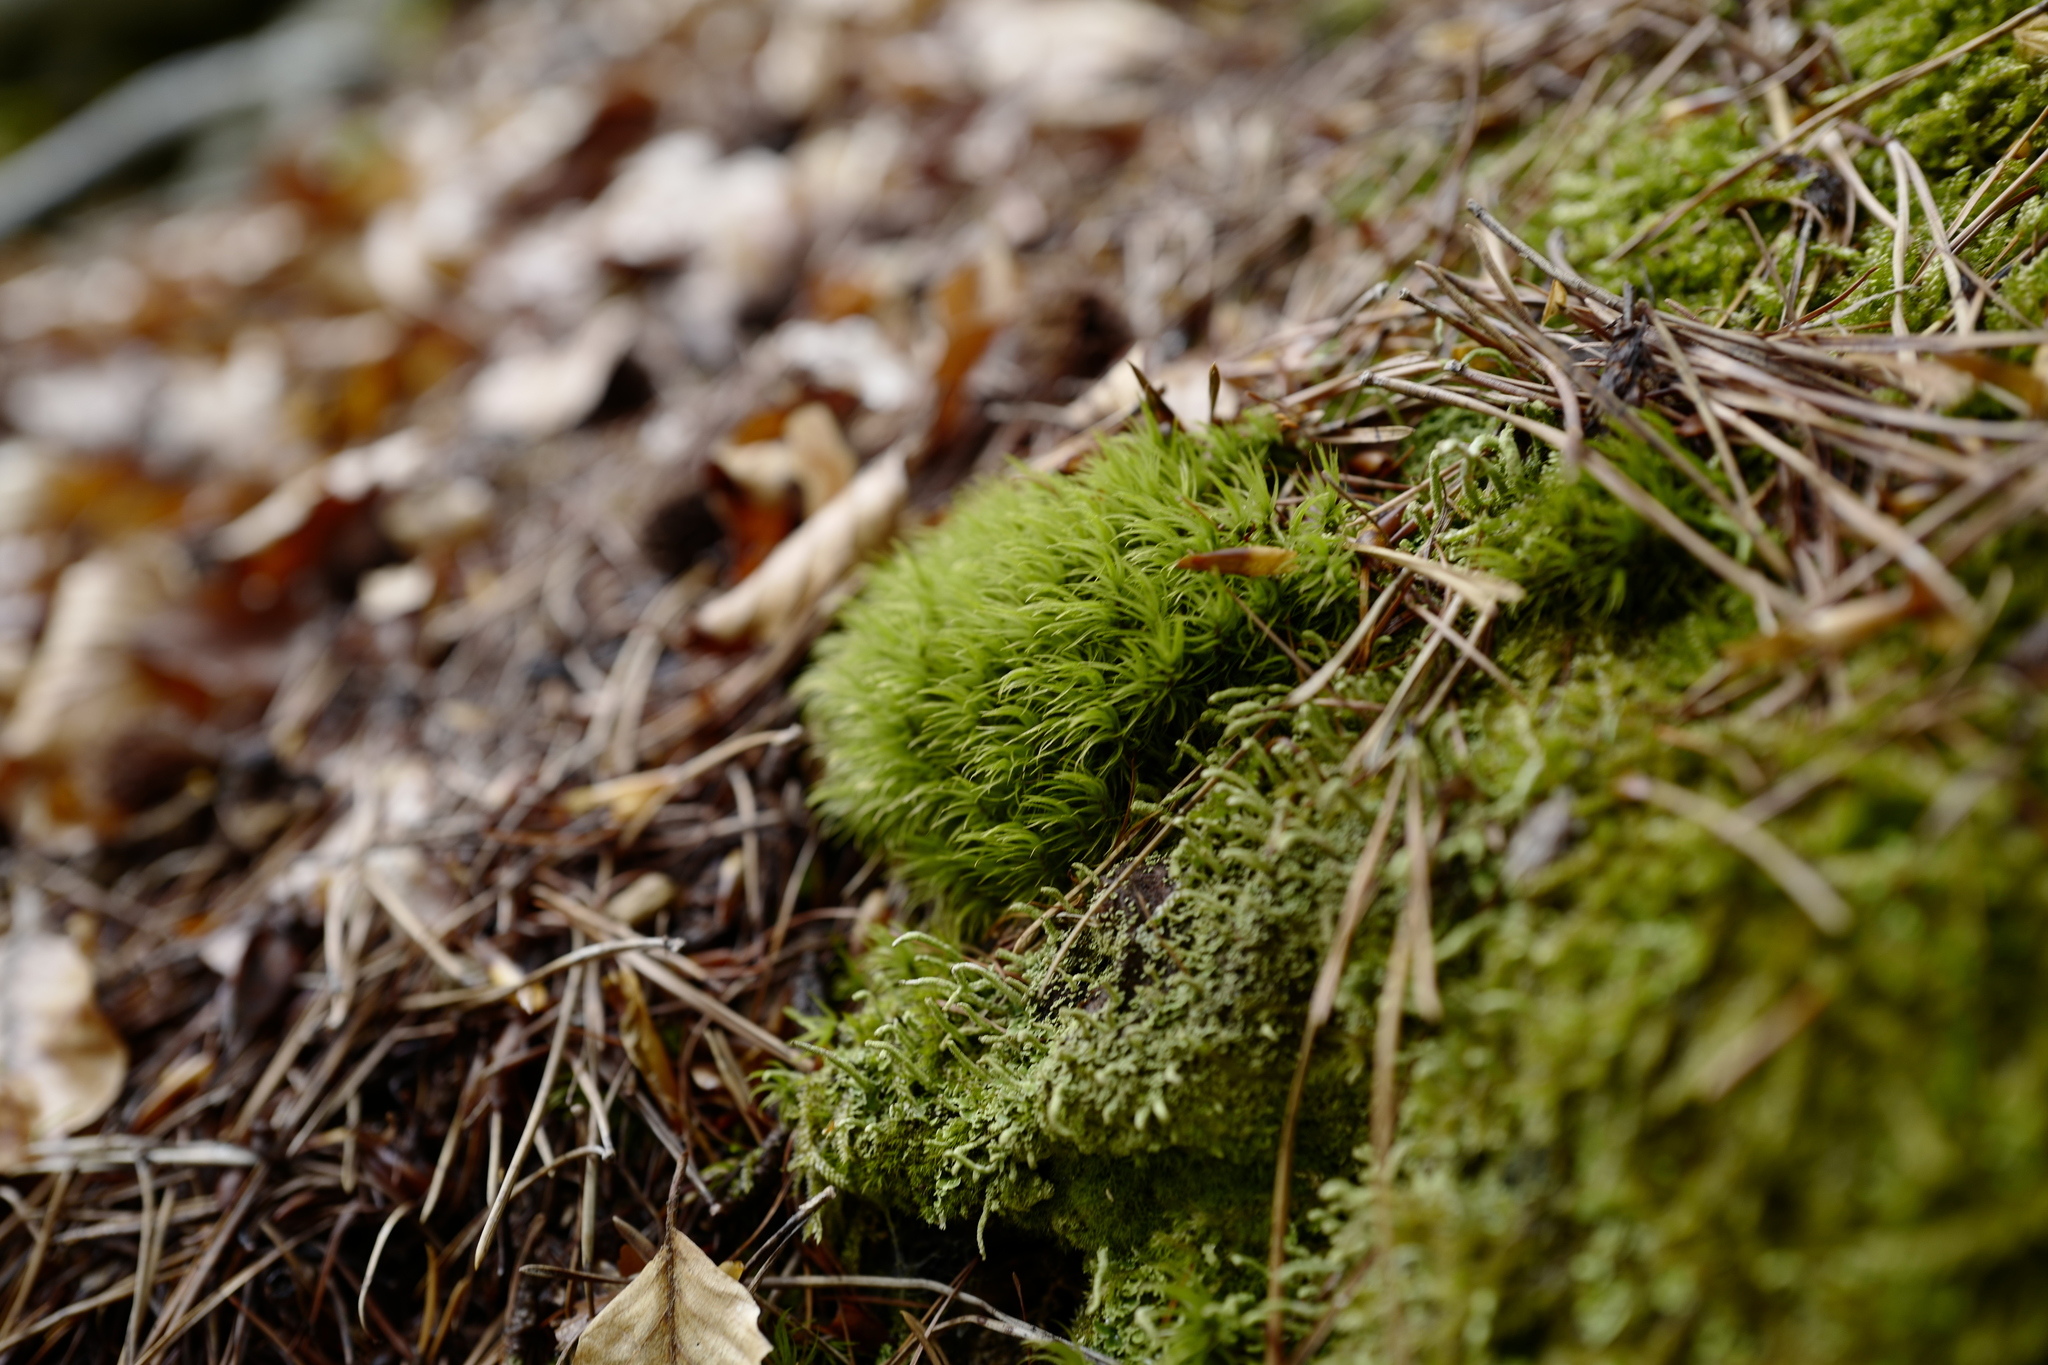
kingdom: Plantae
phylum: Bryophyta
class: Bryopsida
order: Dicranales
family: Dicranaceae
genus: Dicranum
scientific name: Dicranum scoparium
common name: Broom fork-moss
